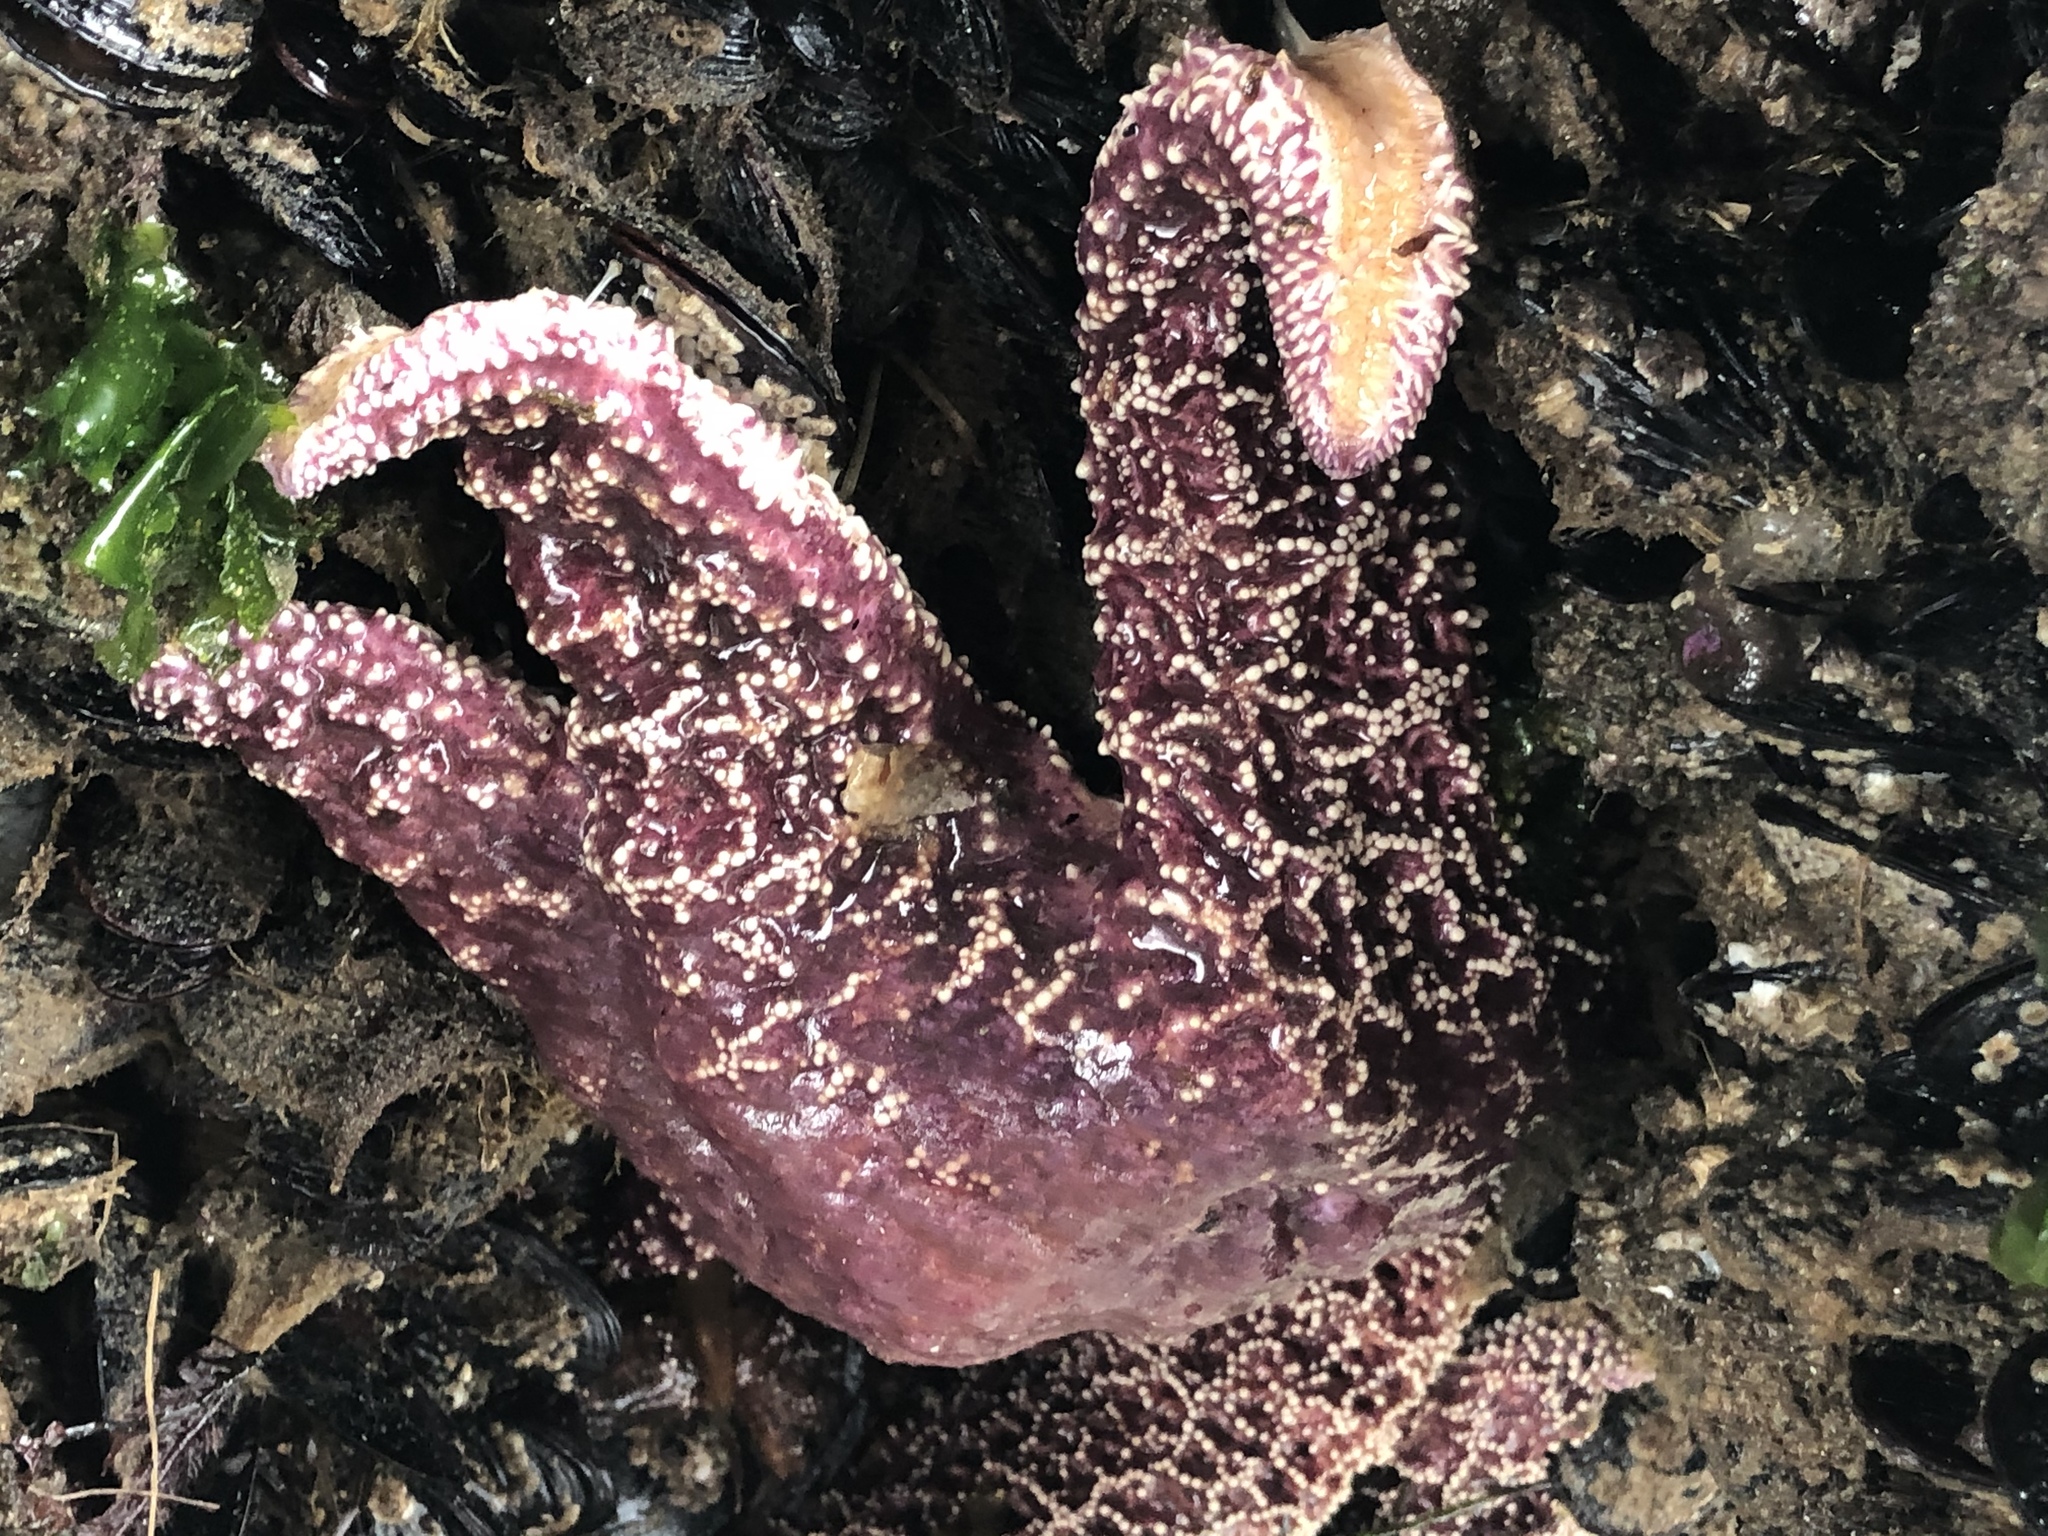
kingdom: Animalia
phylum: Echinodermata
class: Asteroidea
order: Forcipulatida
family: Asteriidae
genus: Pisaster
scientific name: Pisaster ochraceus
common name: Ochre stars
